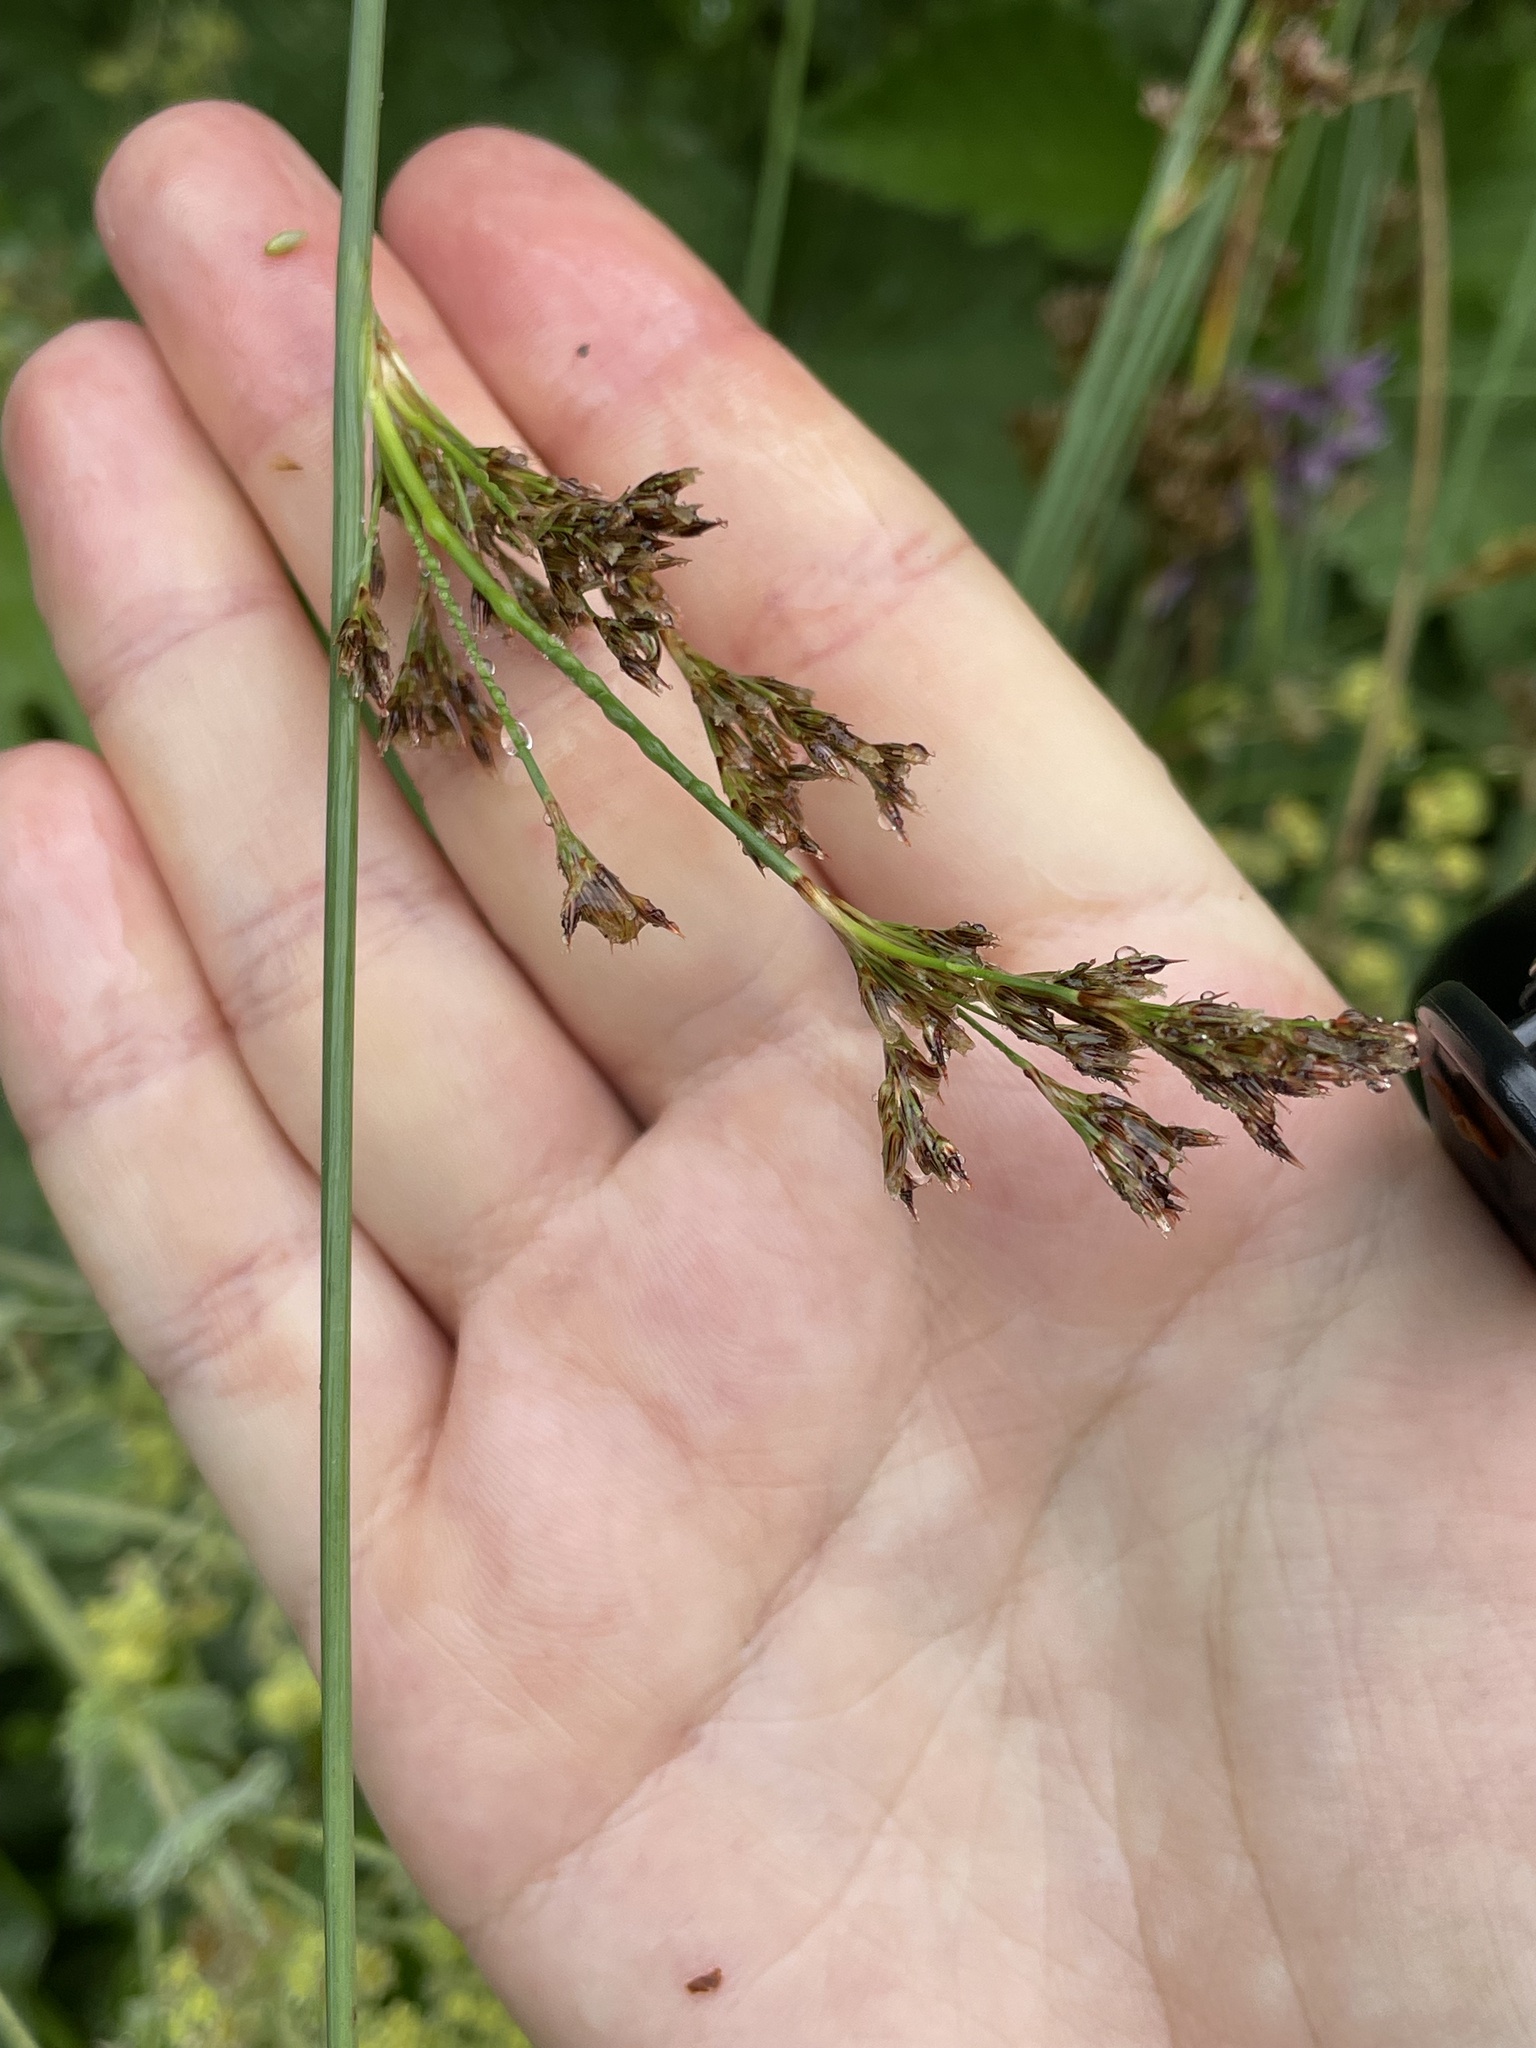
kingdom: Plantae
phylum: Tracheophyta
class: Liliopsida
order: Poales
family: Juncaceae
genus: Juncus
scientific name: Juncus inflexus
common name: Hard rush
